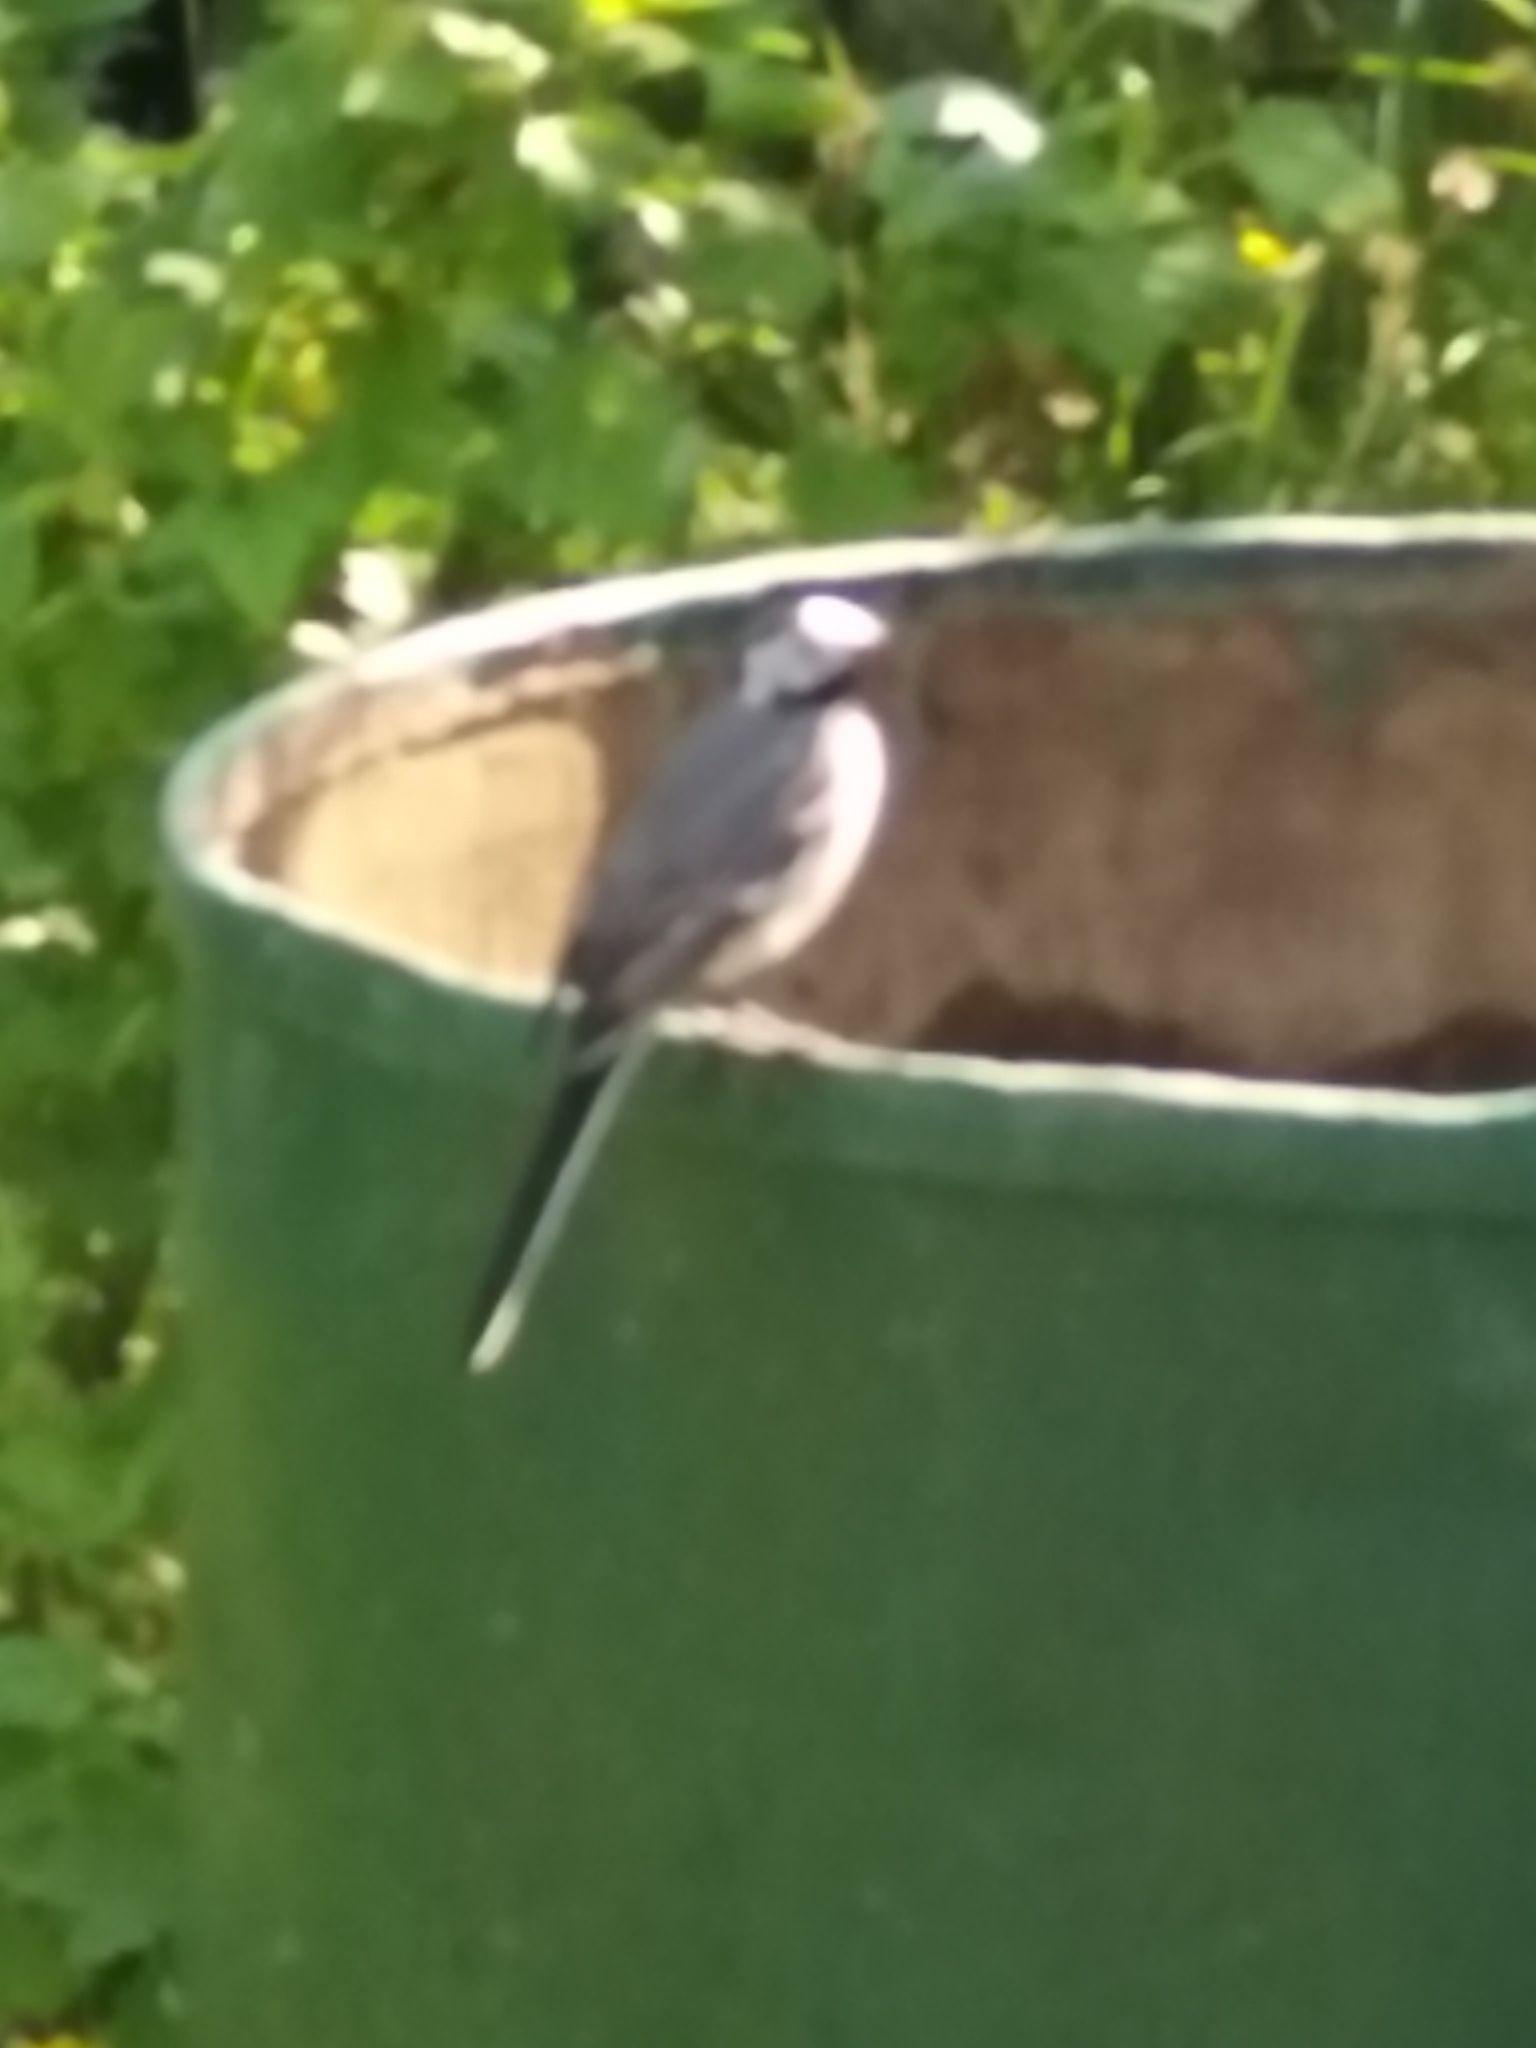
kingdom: Animalia
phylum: Chordata
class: Aves
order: Passeriformes
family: Motacillidae
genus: Motacilla
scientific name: Motacilla alba
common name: White wagtail
